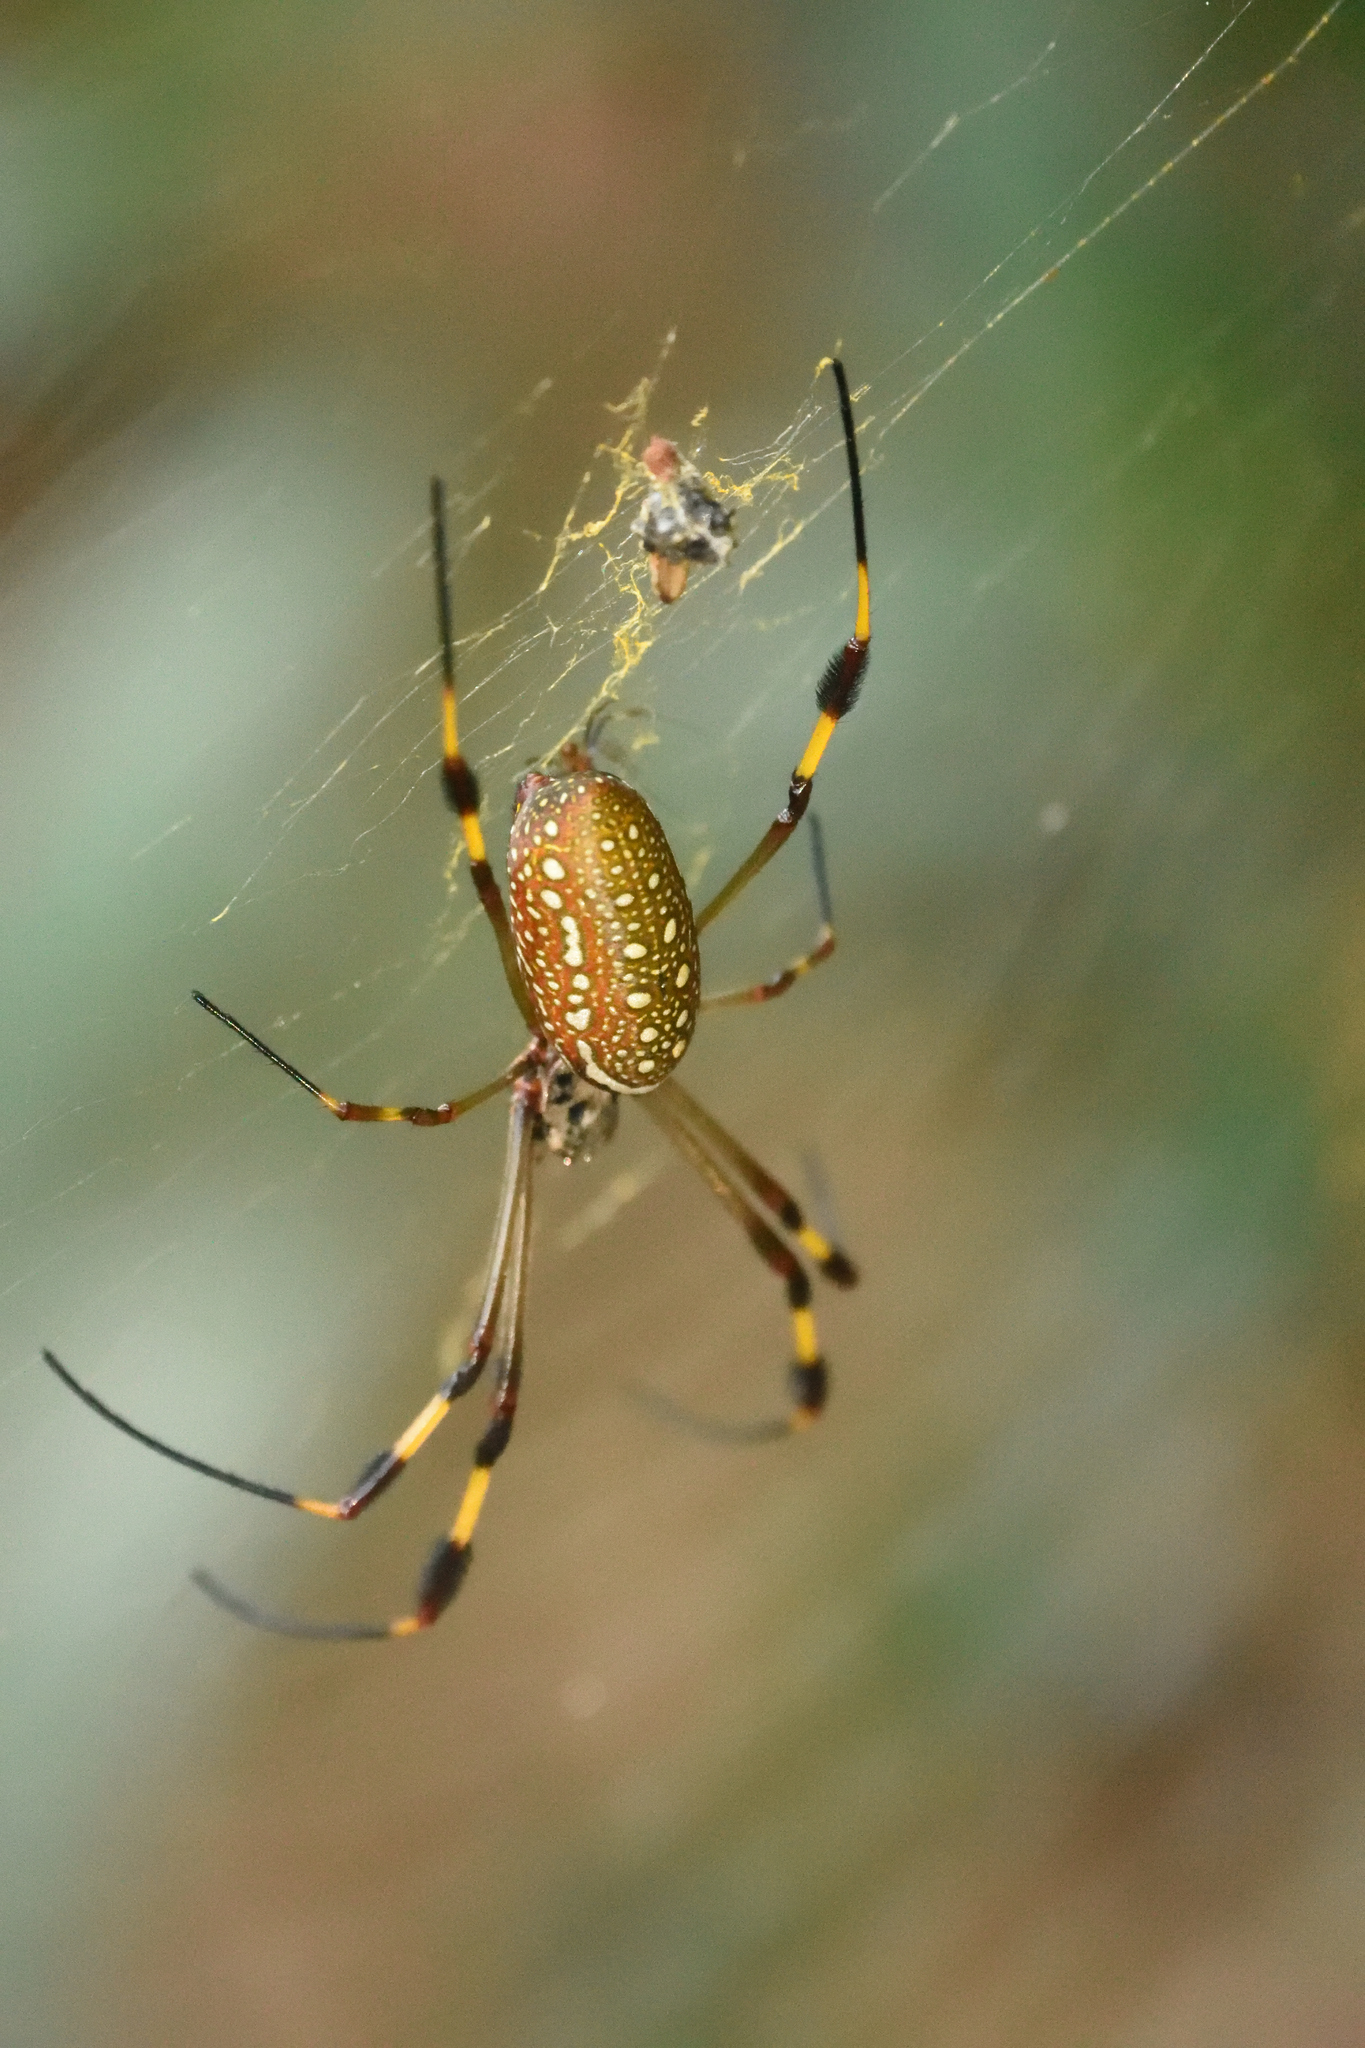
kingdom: Animalia
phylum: Arthropoda
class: Arachnida
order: Araneae
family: Araneidae
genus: Trichonephila
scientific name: Trichonephila clavipes
